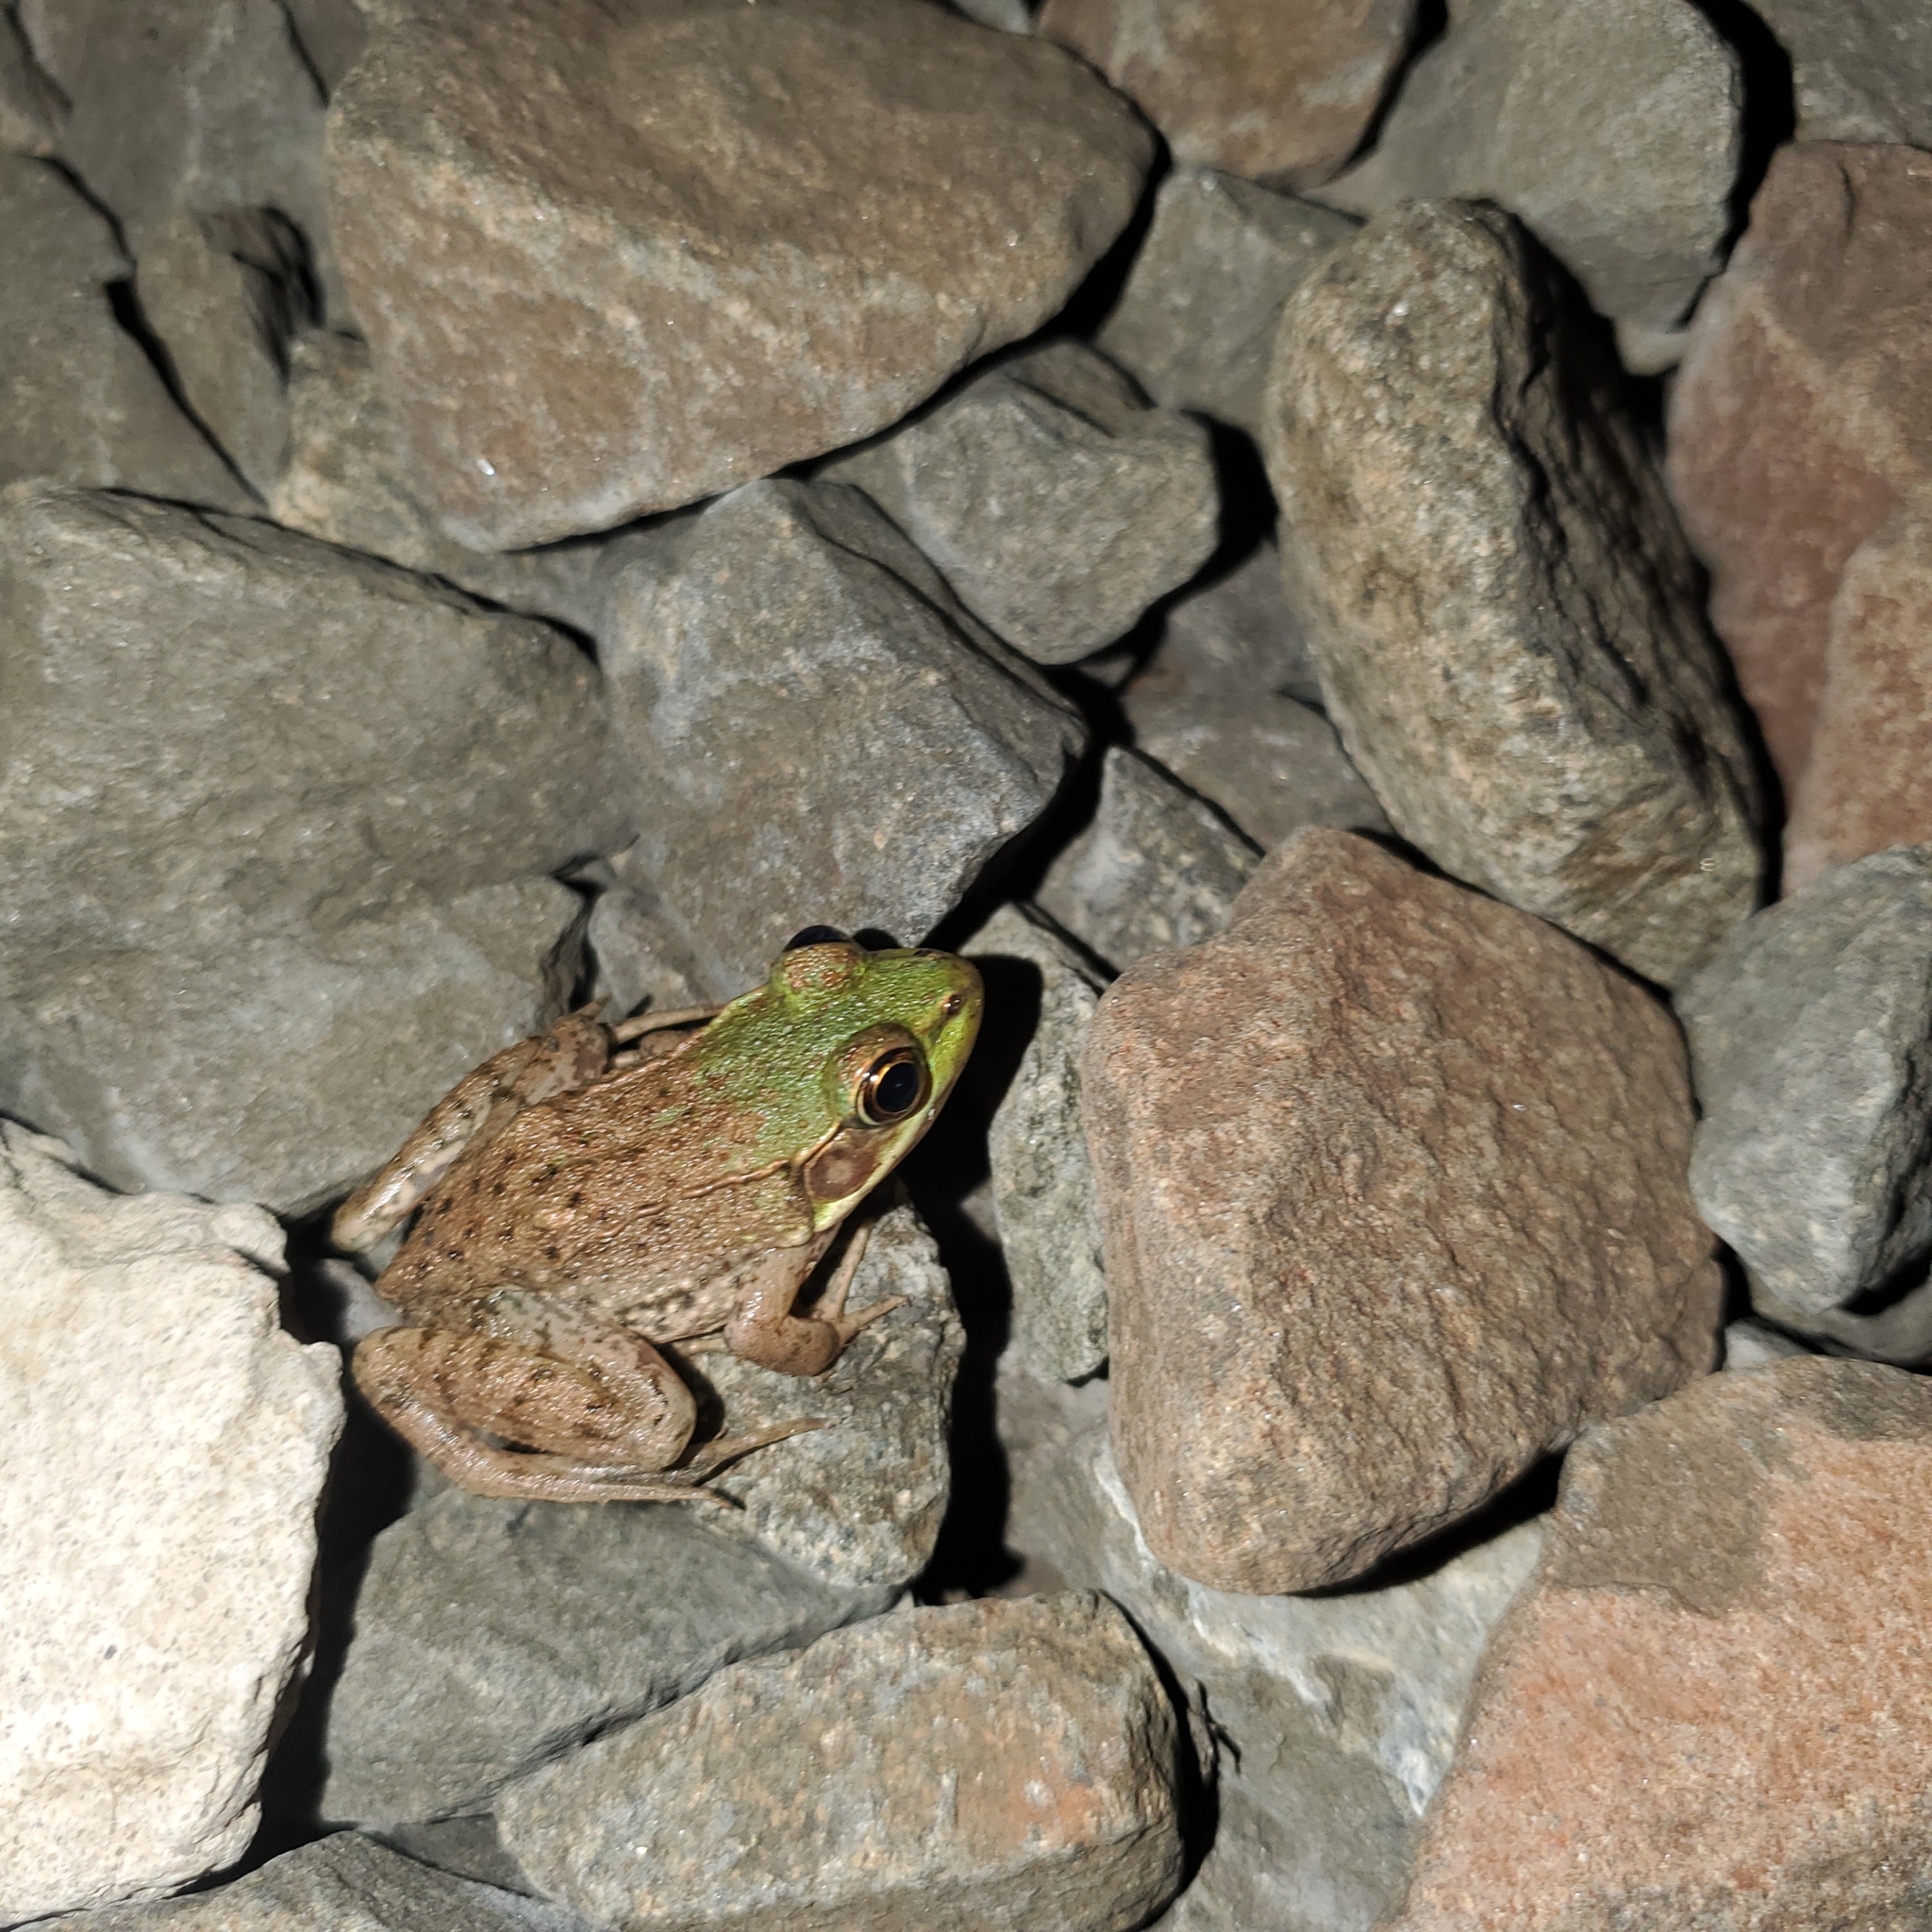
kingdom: Animalia
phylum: Chordata
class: Amphibia
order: Anura
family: Ranidae
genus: Lithobates
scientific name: Lithobates clamitans
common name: Green frog
